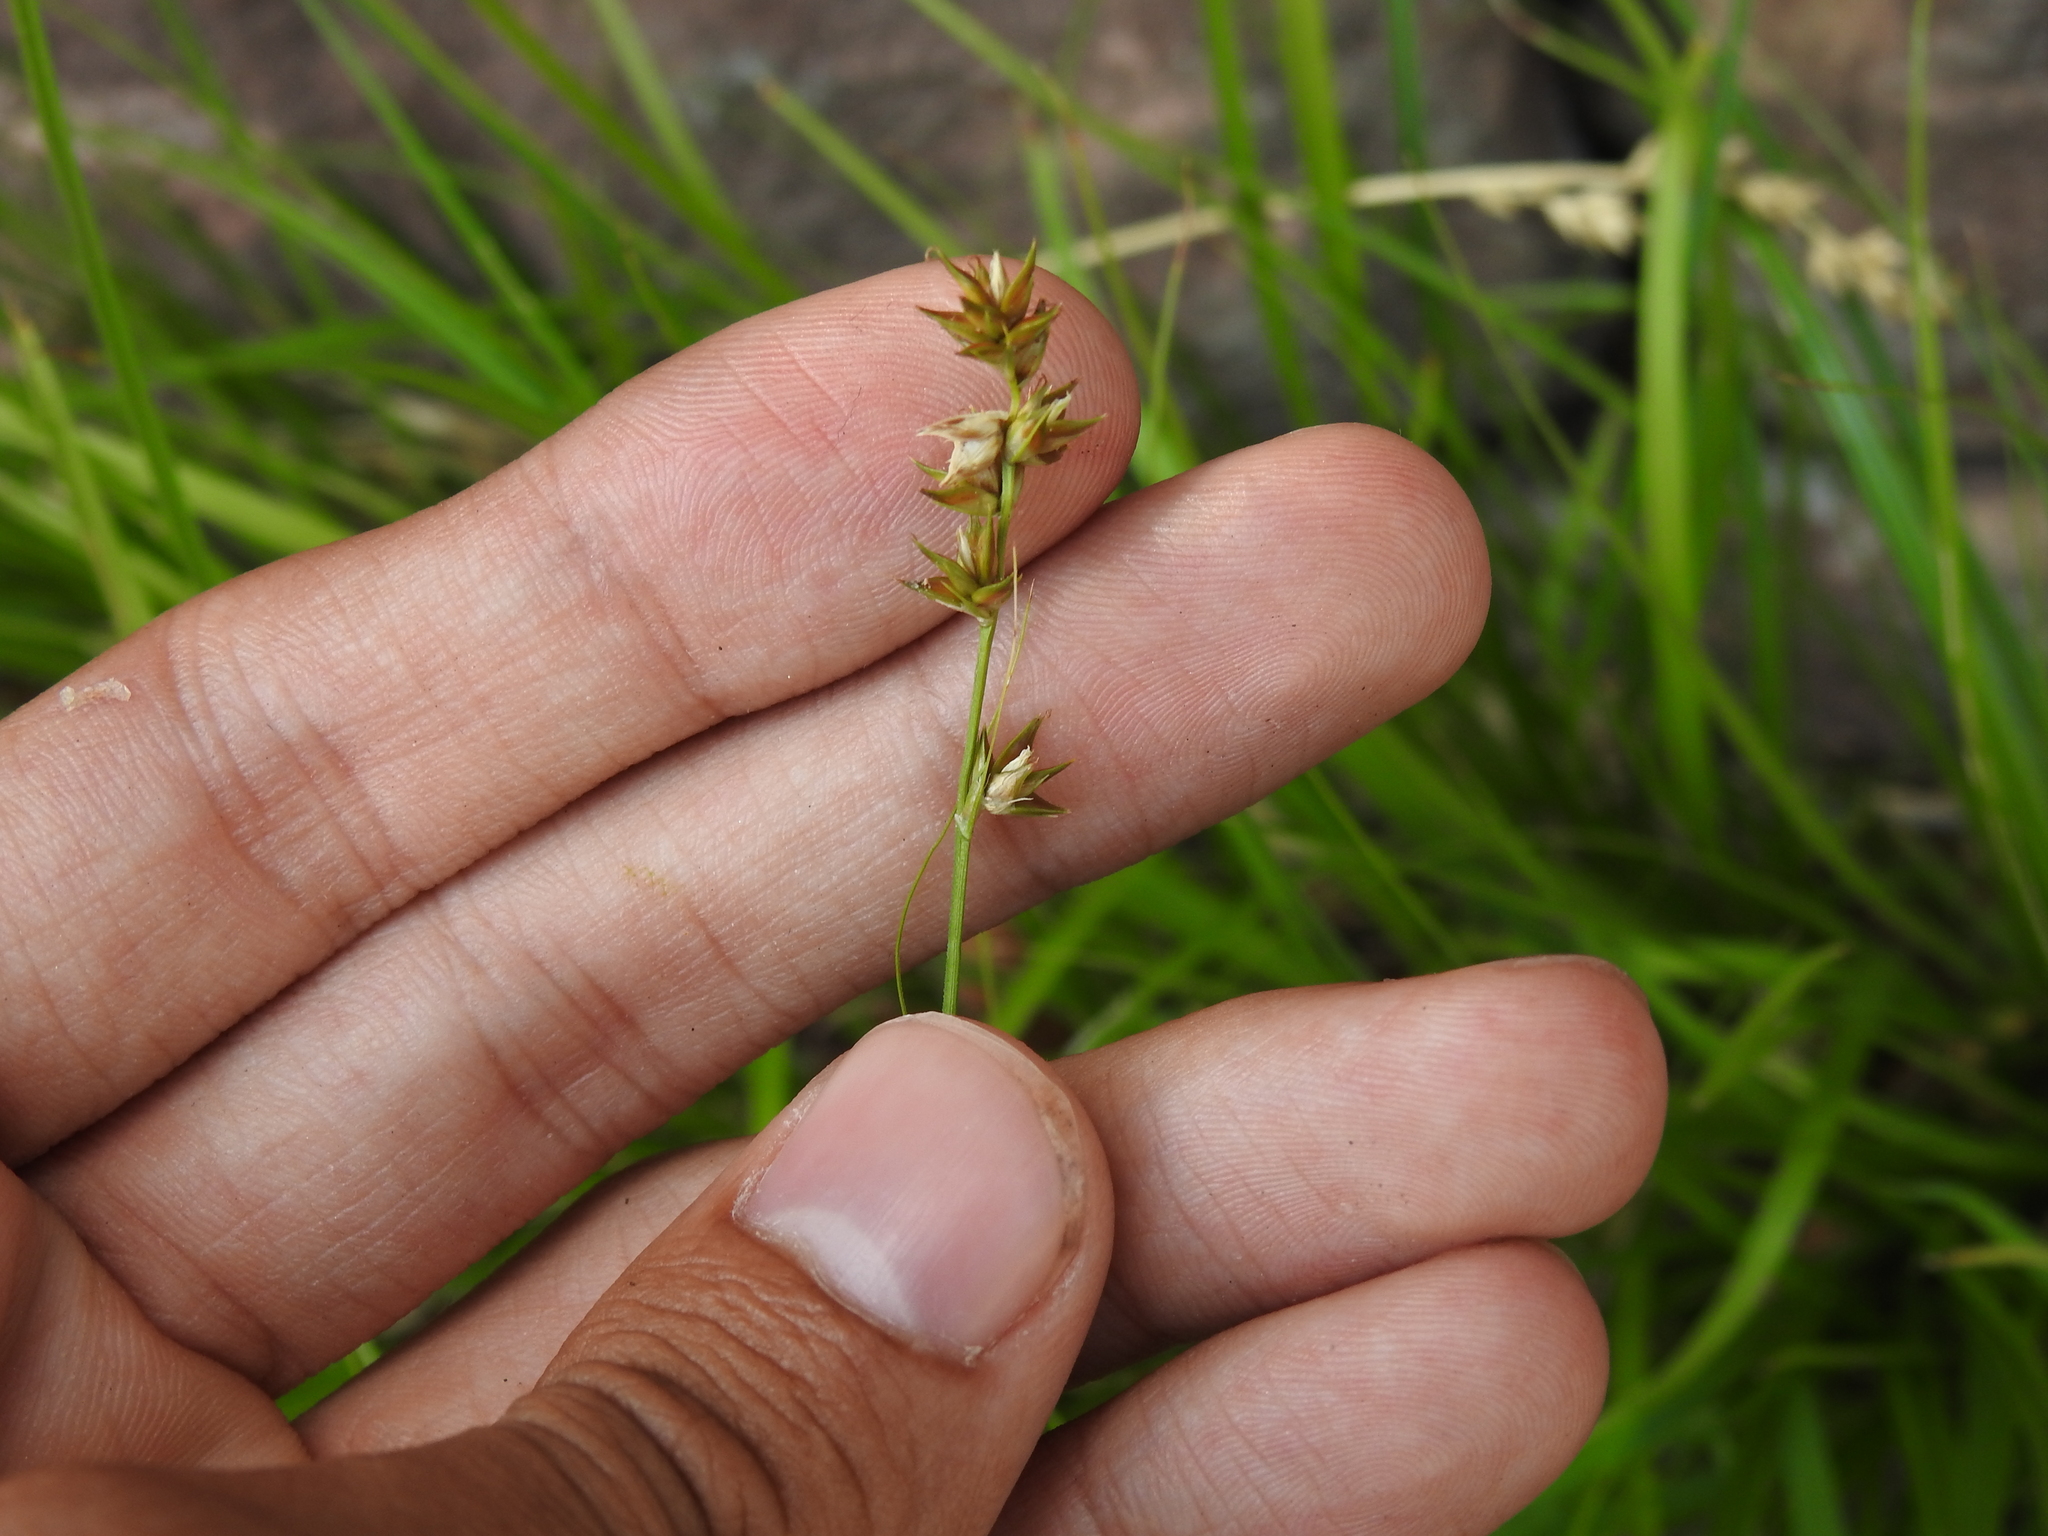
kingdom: Plantae
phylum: Tracheophyta
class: Liliopsida
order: Poales
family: Cyperaceae
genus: Carex
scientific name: Carex muricata
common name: Rough sedge
